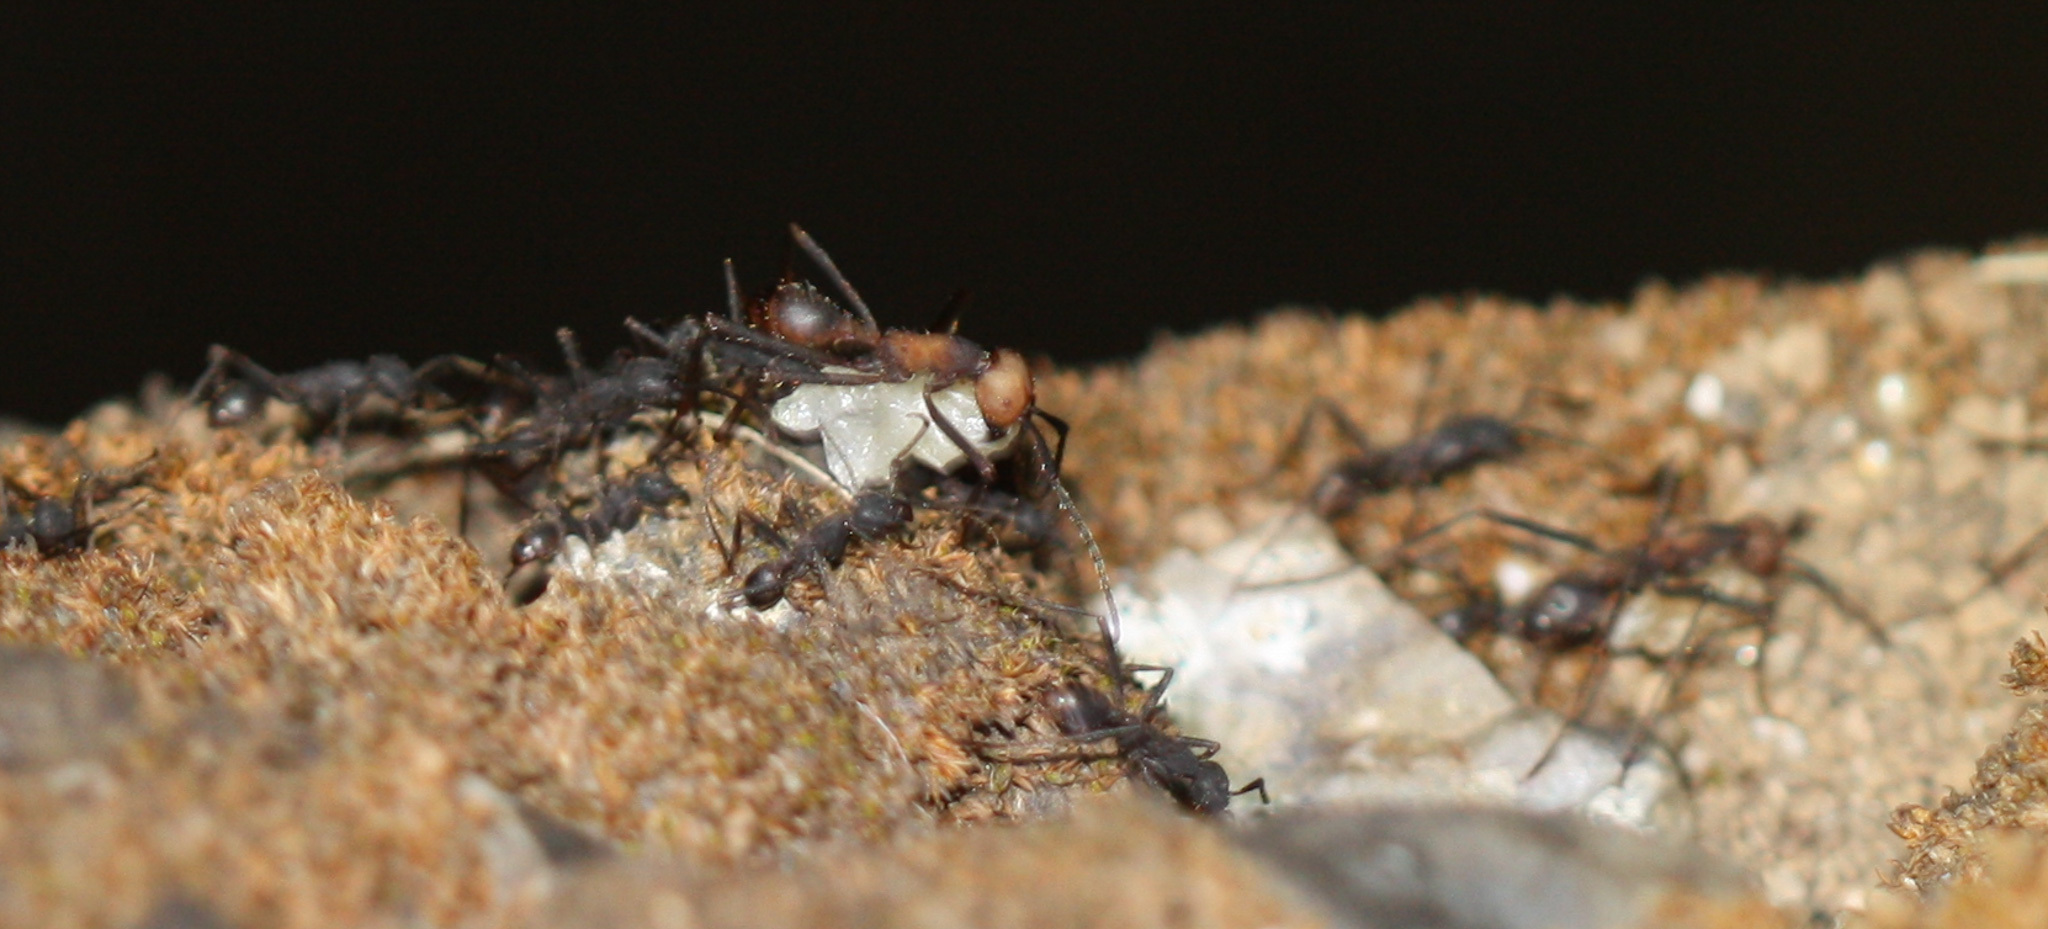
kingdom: Animalia
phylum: Arthropoda
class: Insecta
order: Hymenoptera
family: Formicidae
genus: Eciton
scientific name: Eciton burchellii
